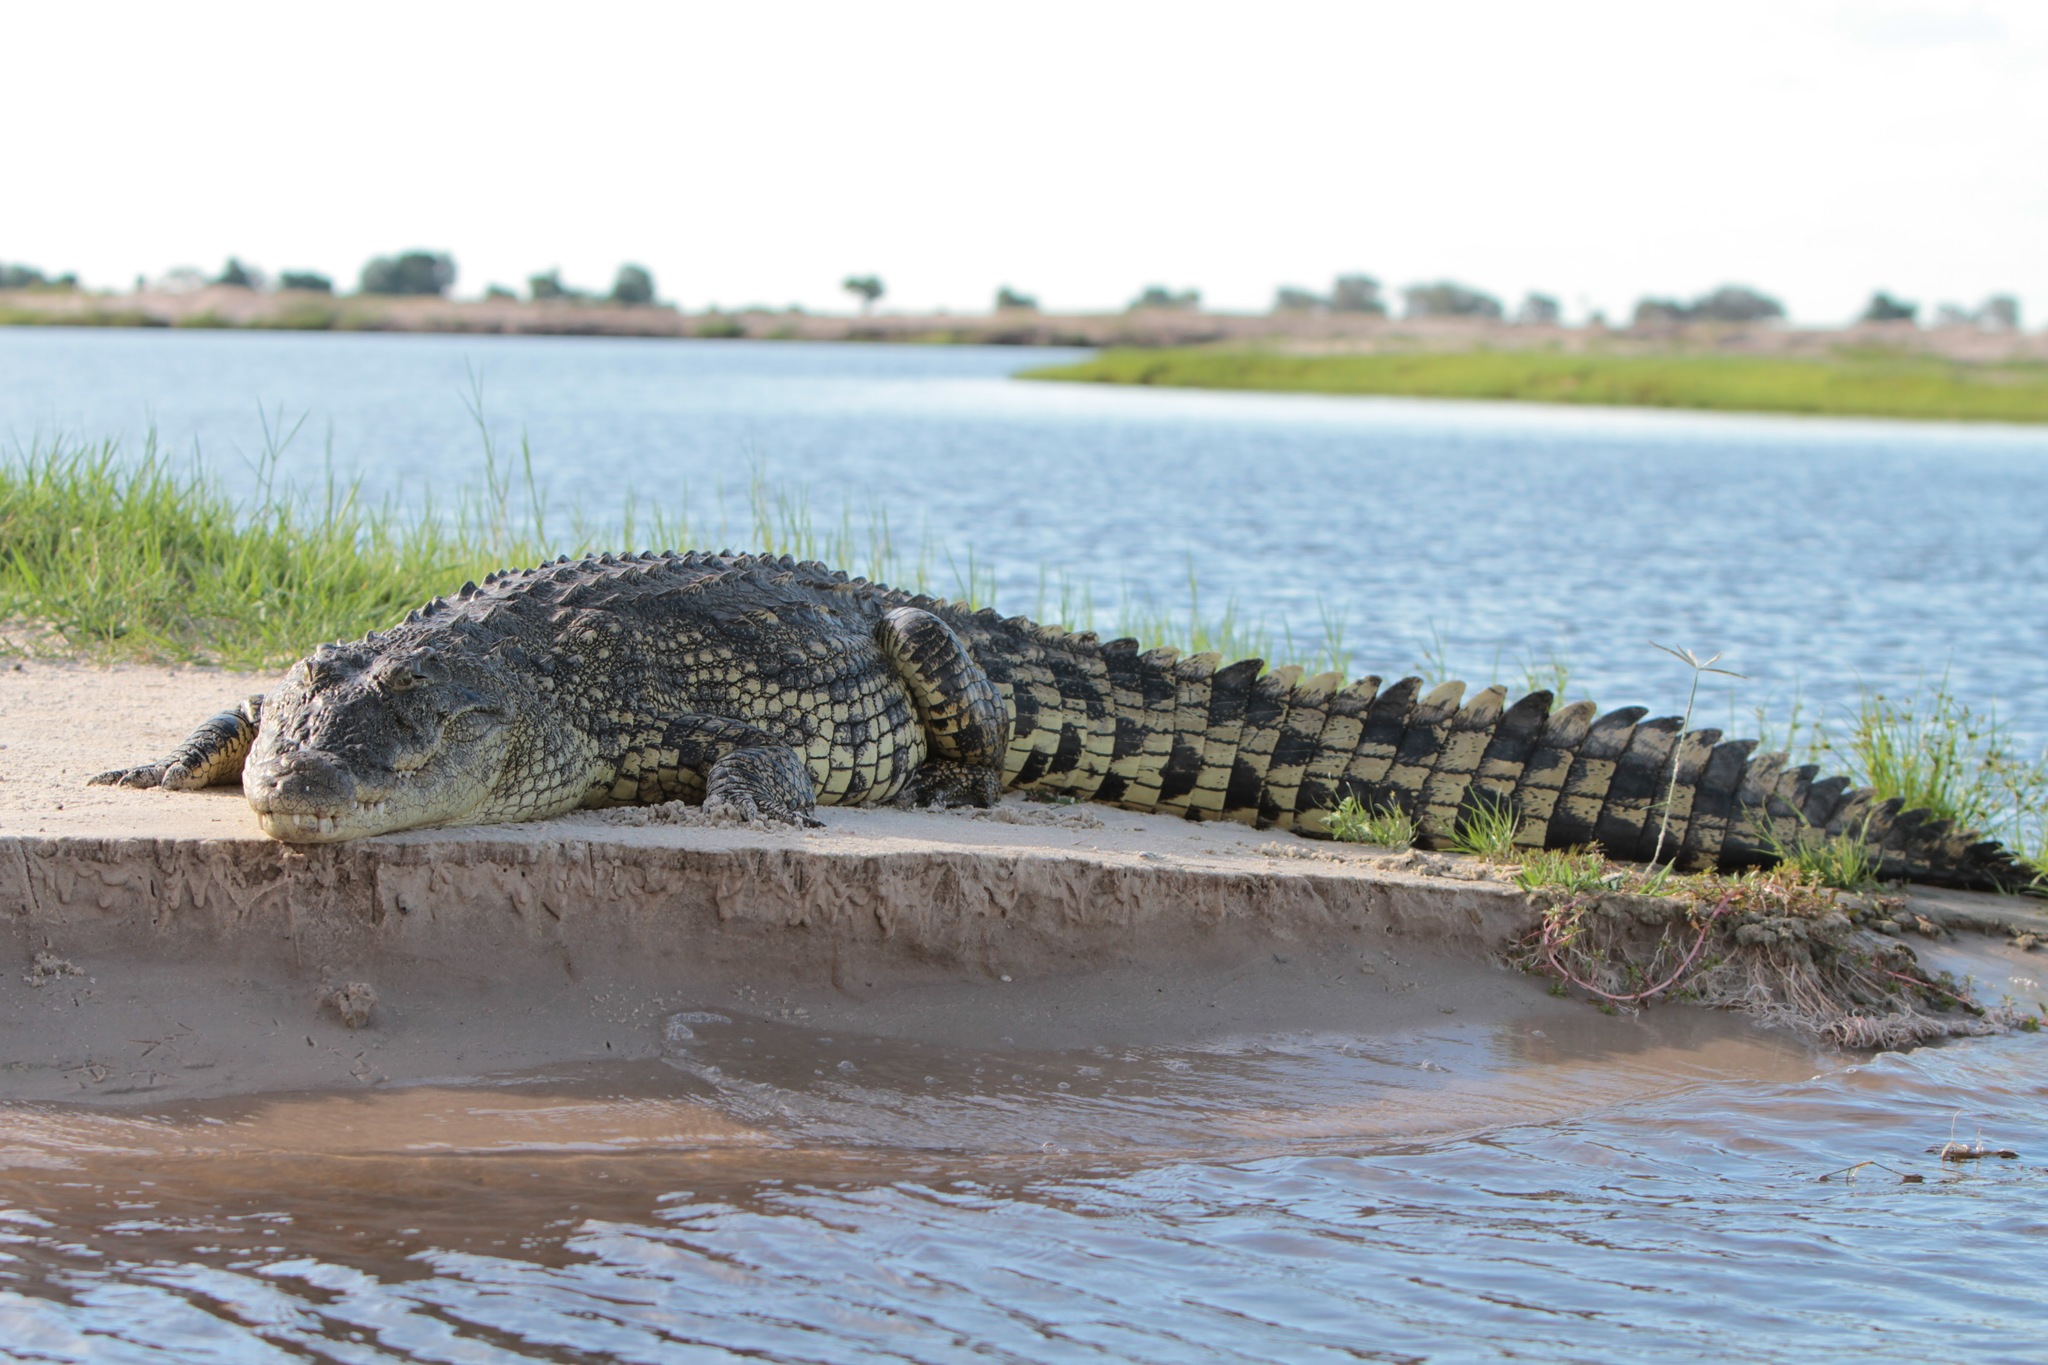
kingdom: Animalia
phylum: Chordata
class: Crocodylia
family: Crocodylidae
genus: Crocodylus
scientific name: Crocodylus niloticus
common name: Nile crocodile
